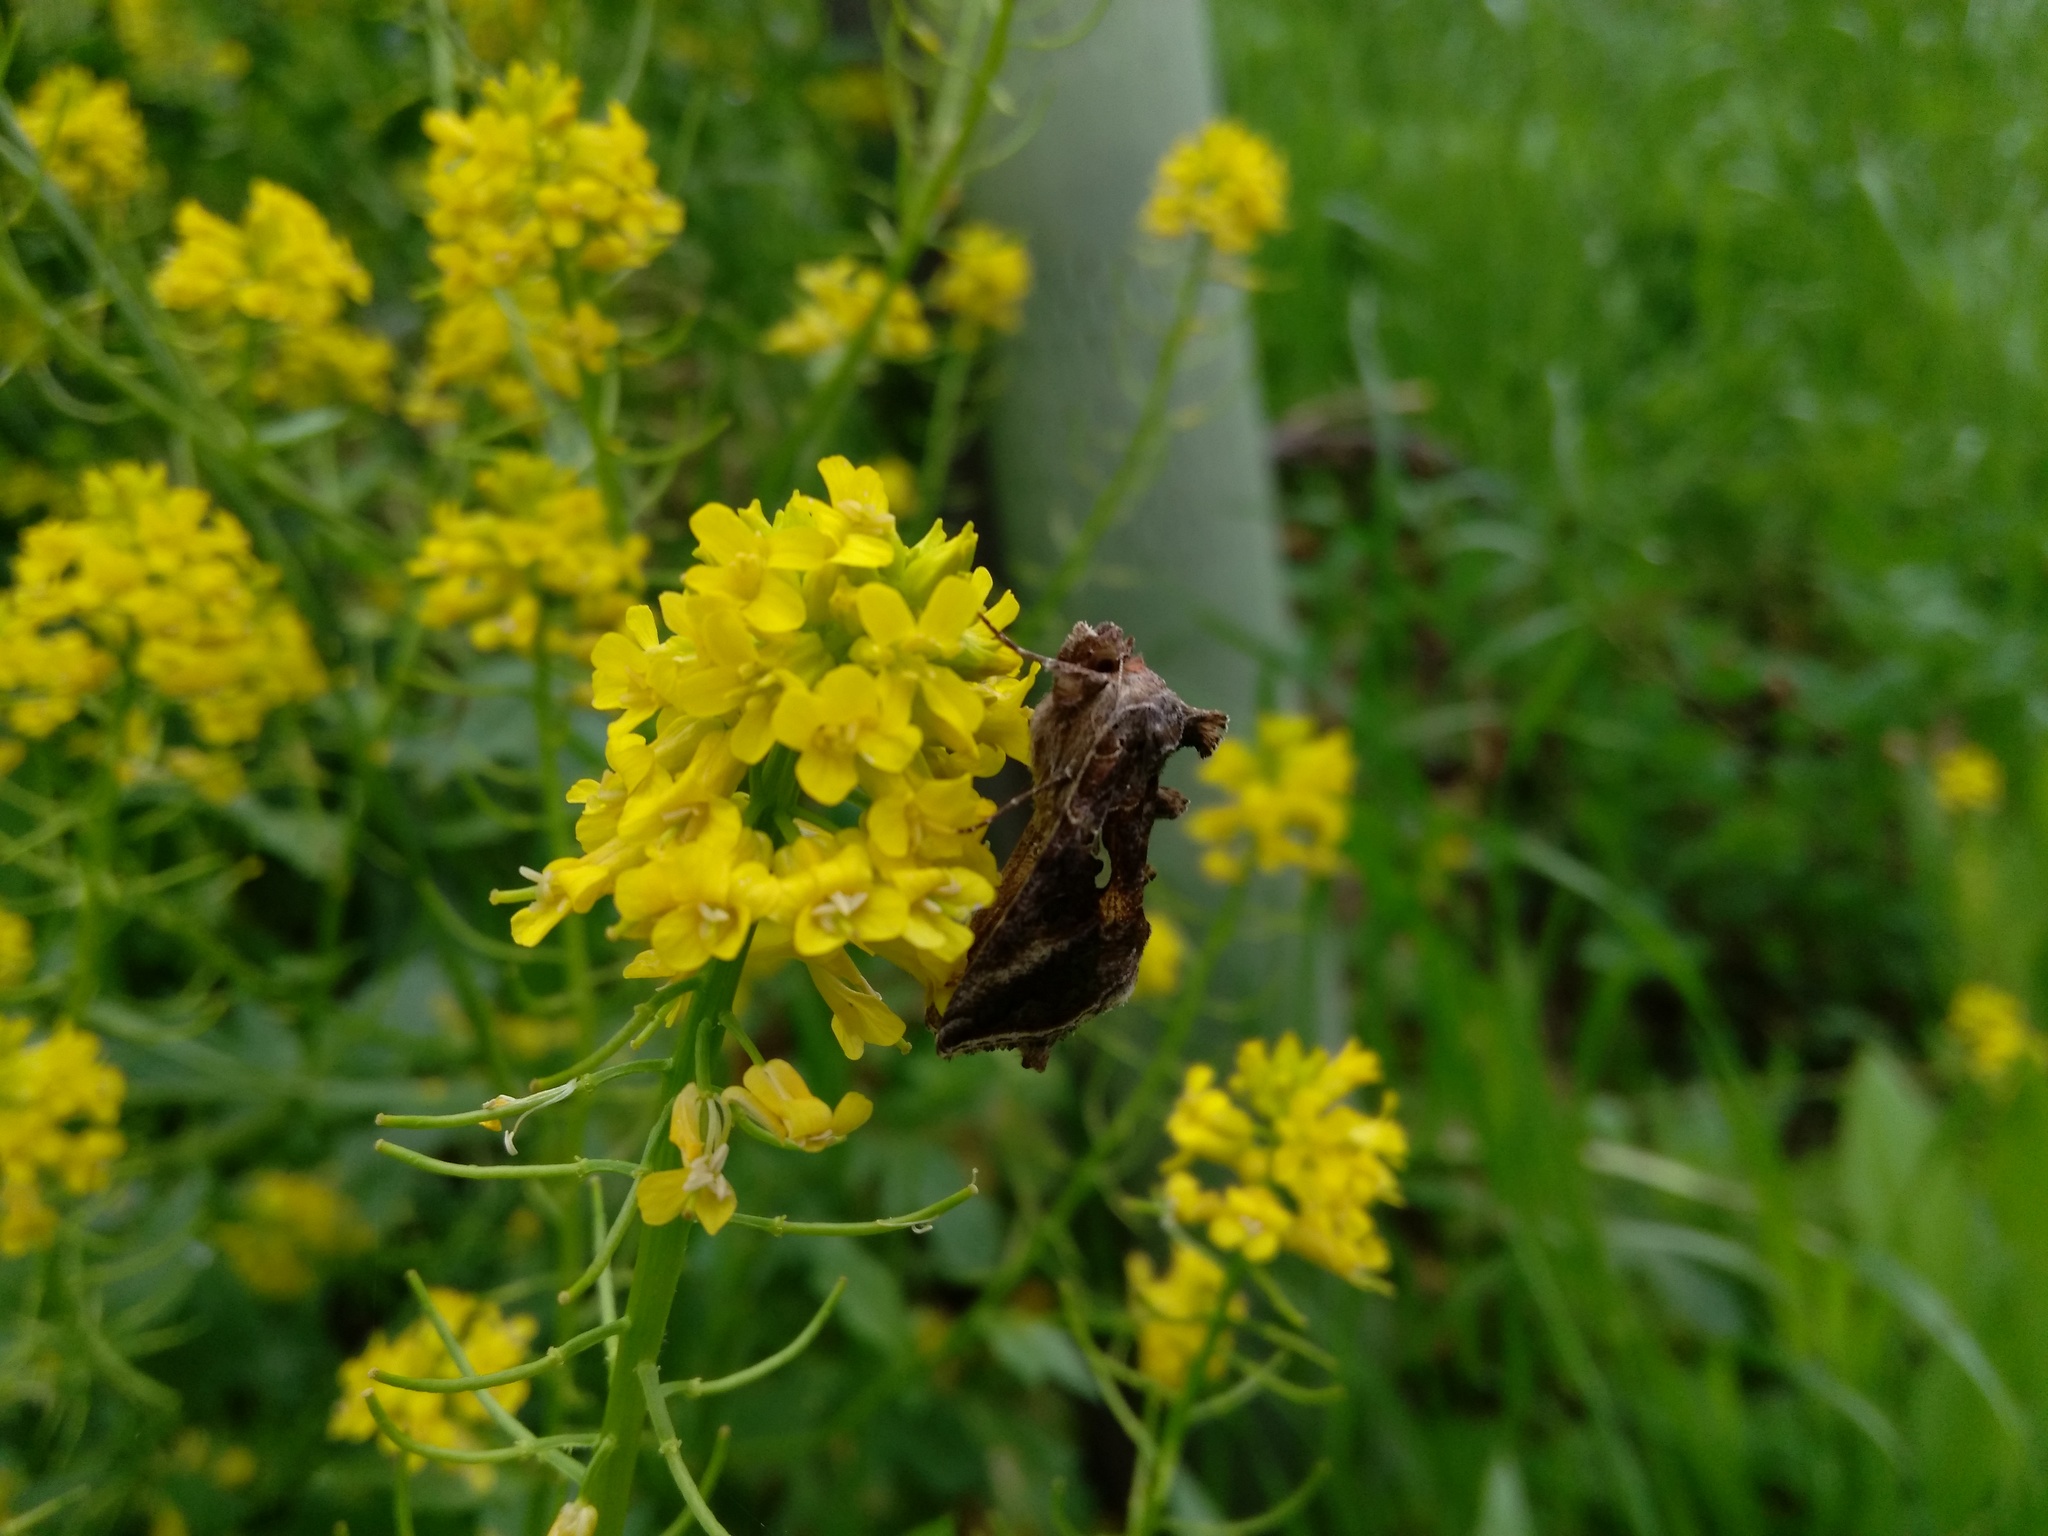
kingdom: Animalia
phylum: Arthropoda
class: Insecta
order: Lepidoptera
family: Noctuidae
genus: Autographa
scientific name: Autographa precationis
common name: Common looper moth
